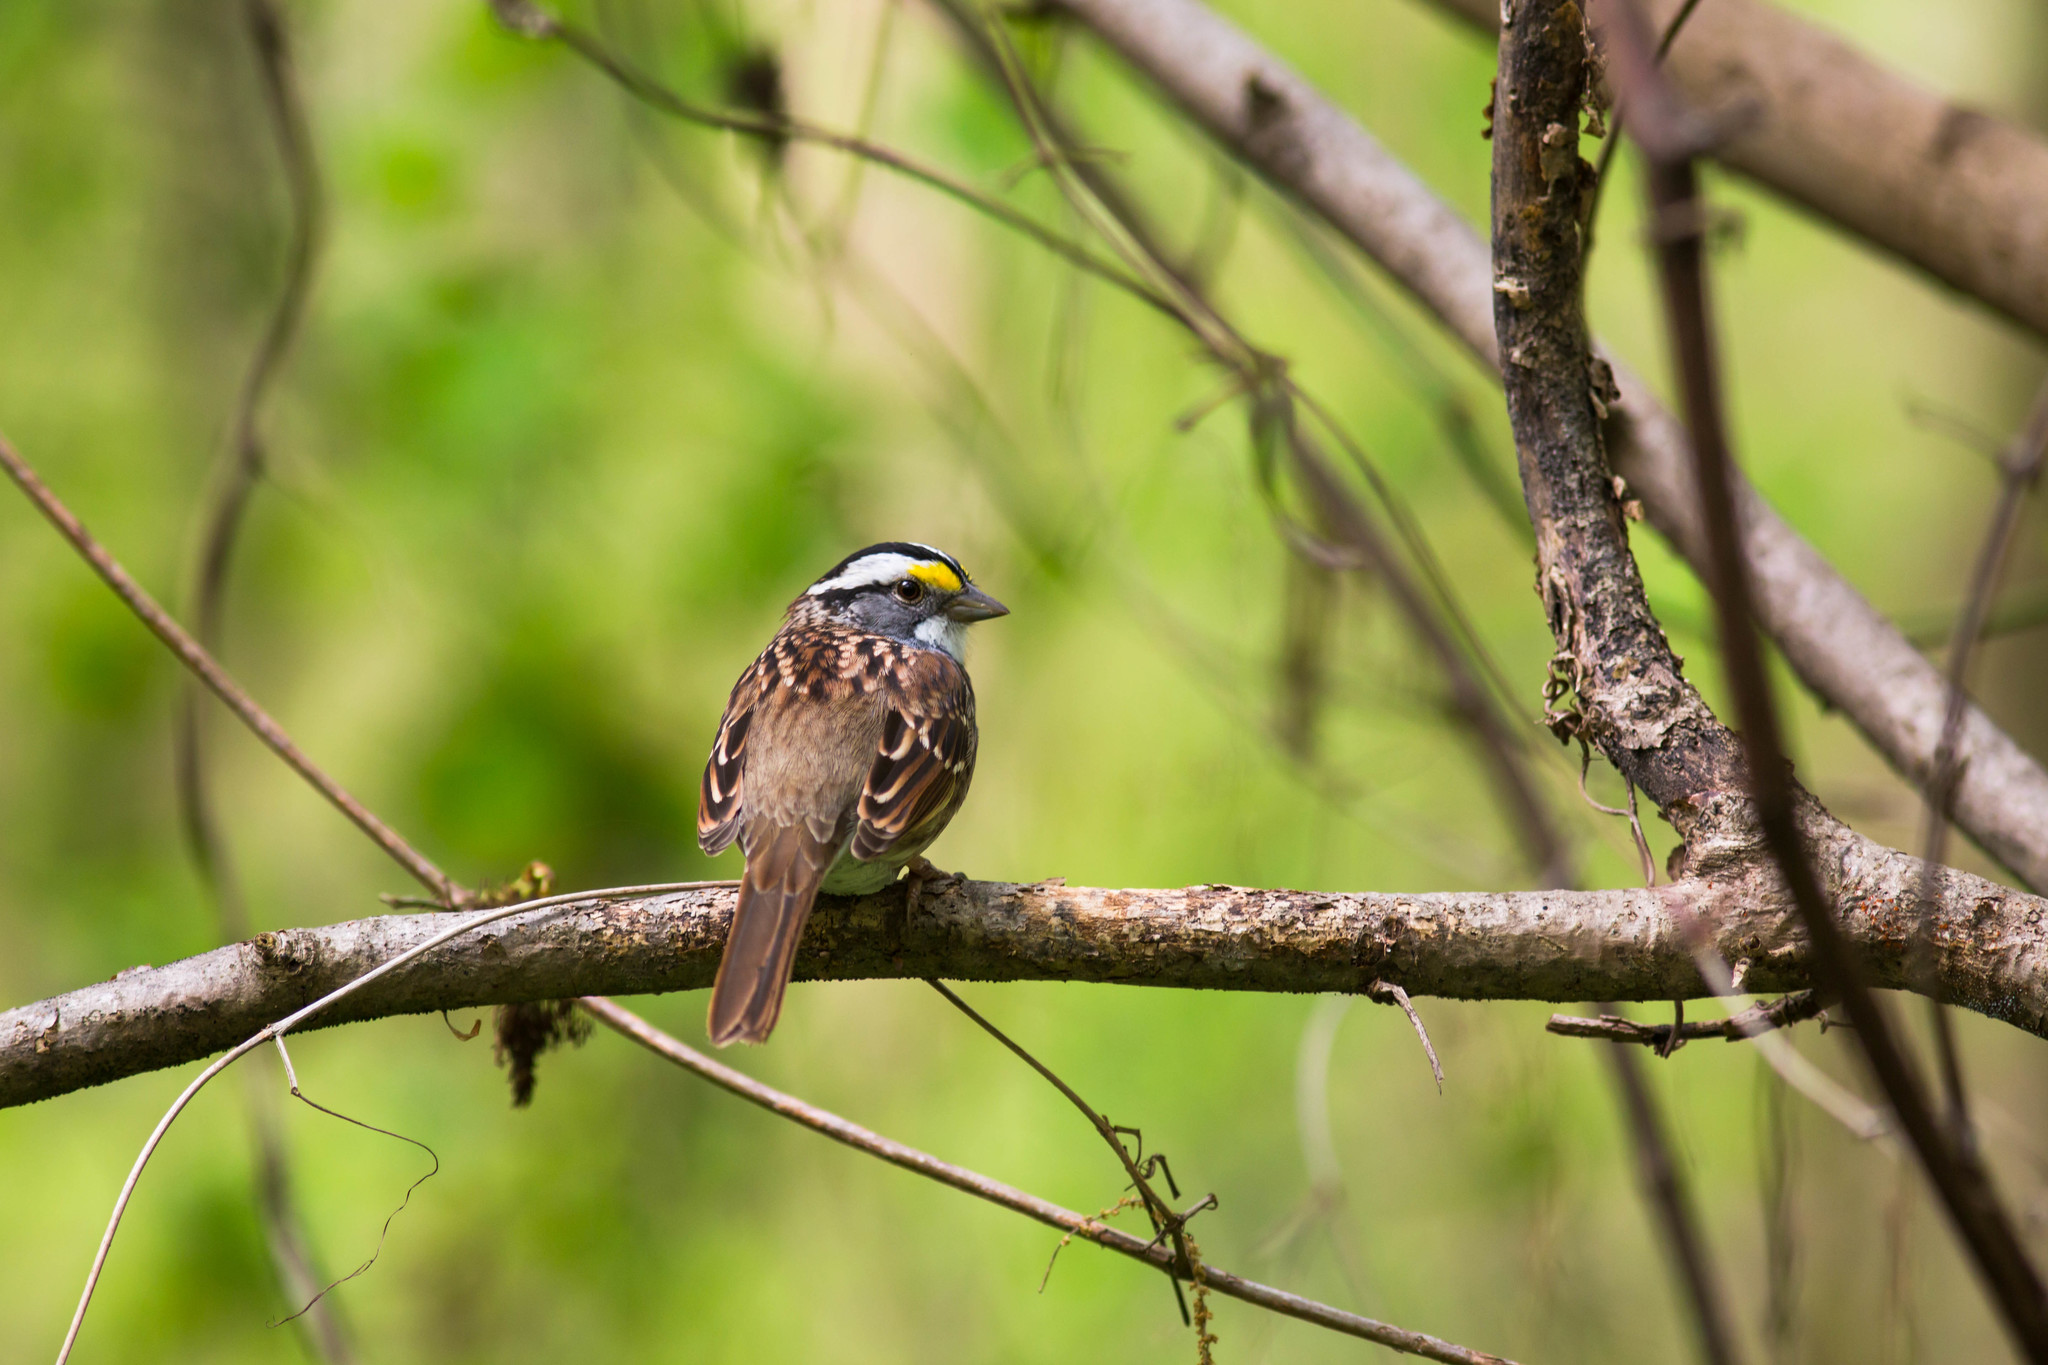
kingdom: Animalia
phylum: Chordata
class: Aves
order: Passeriformes
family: Passerellidae
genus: Zonotrichia
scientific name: Zonotrichia albicollis
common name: White-throated sparrow
